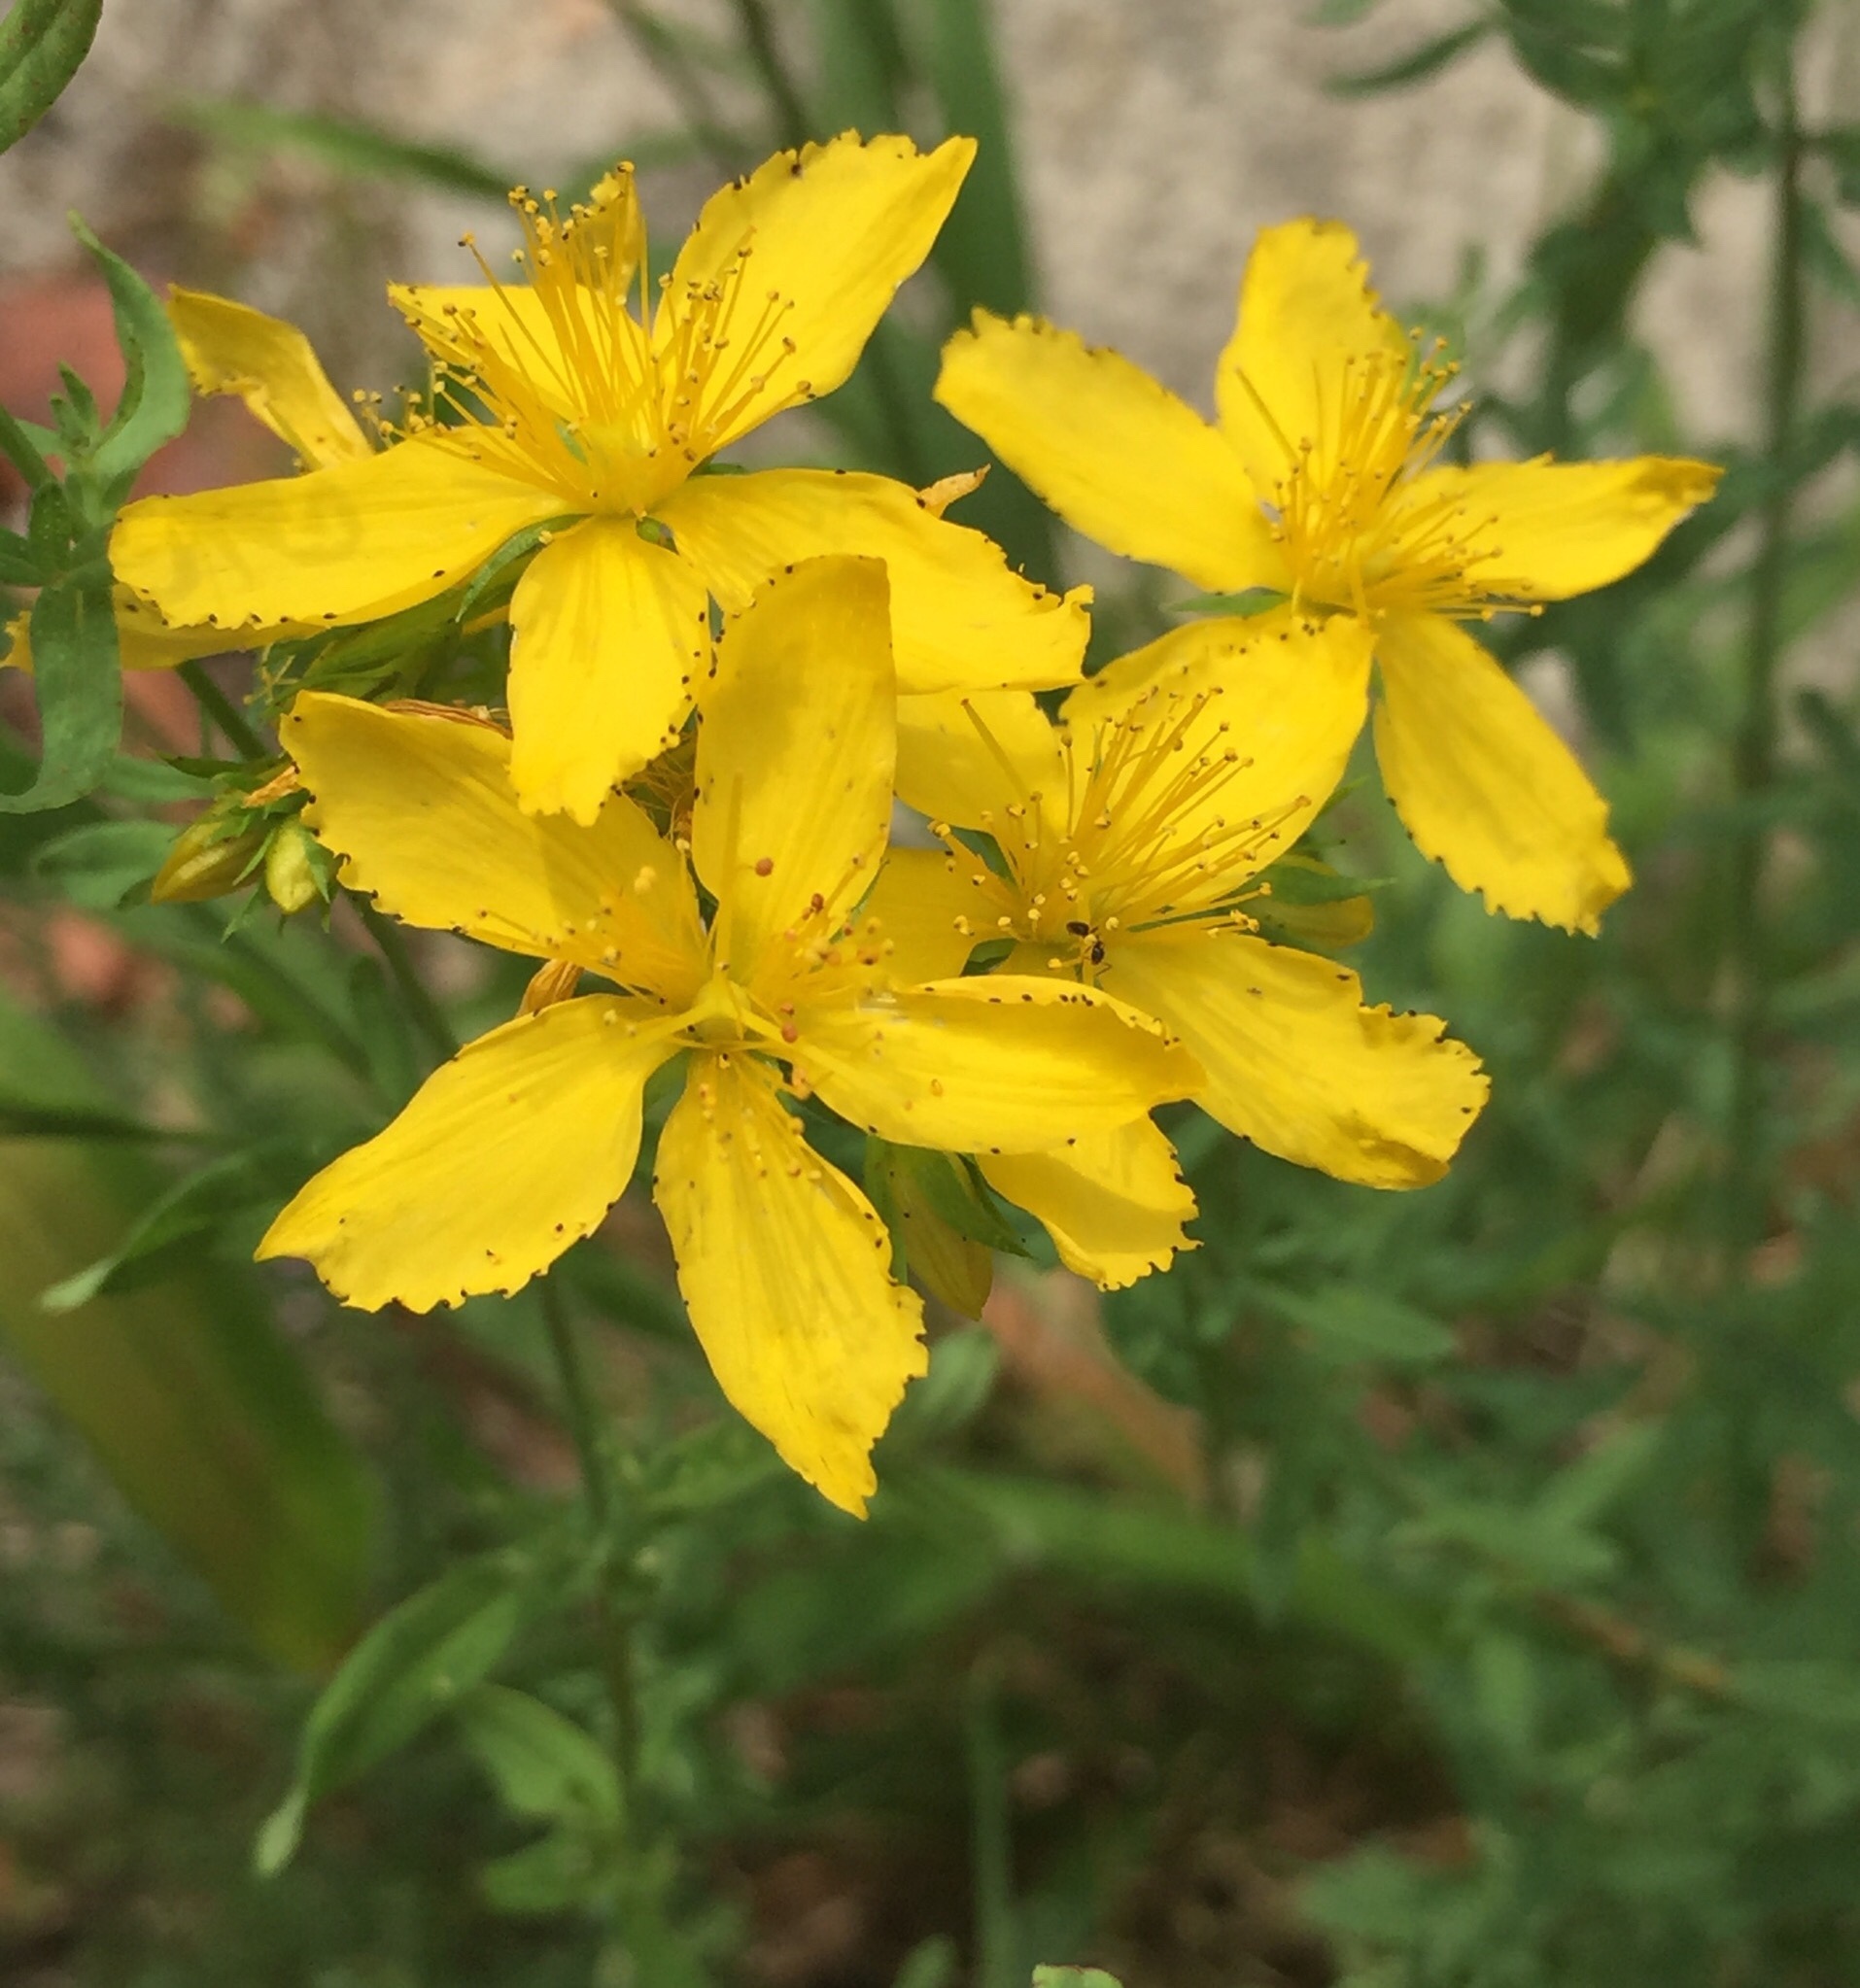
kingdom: Plantae
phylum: Tracheophyta
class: Magnoliopsida
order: Malpighiales
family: Hypericaceae
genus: Hypericum
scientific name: Hypericum perforatum
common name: Common st. johnswort
